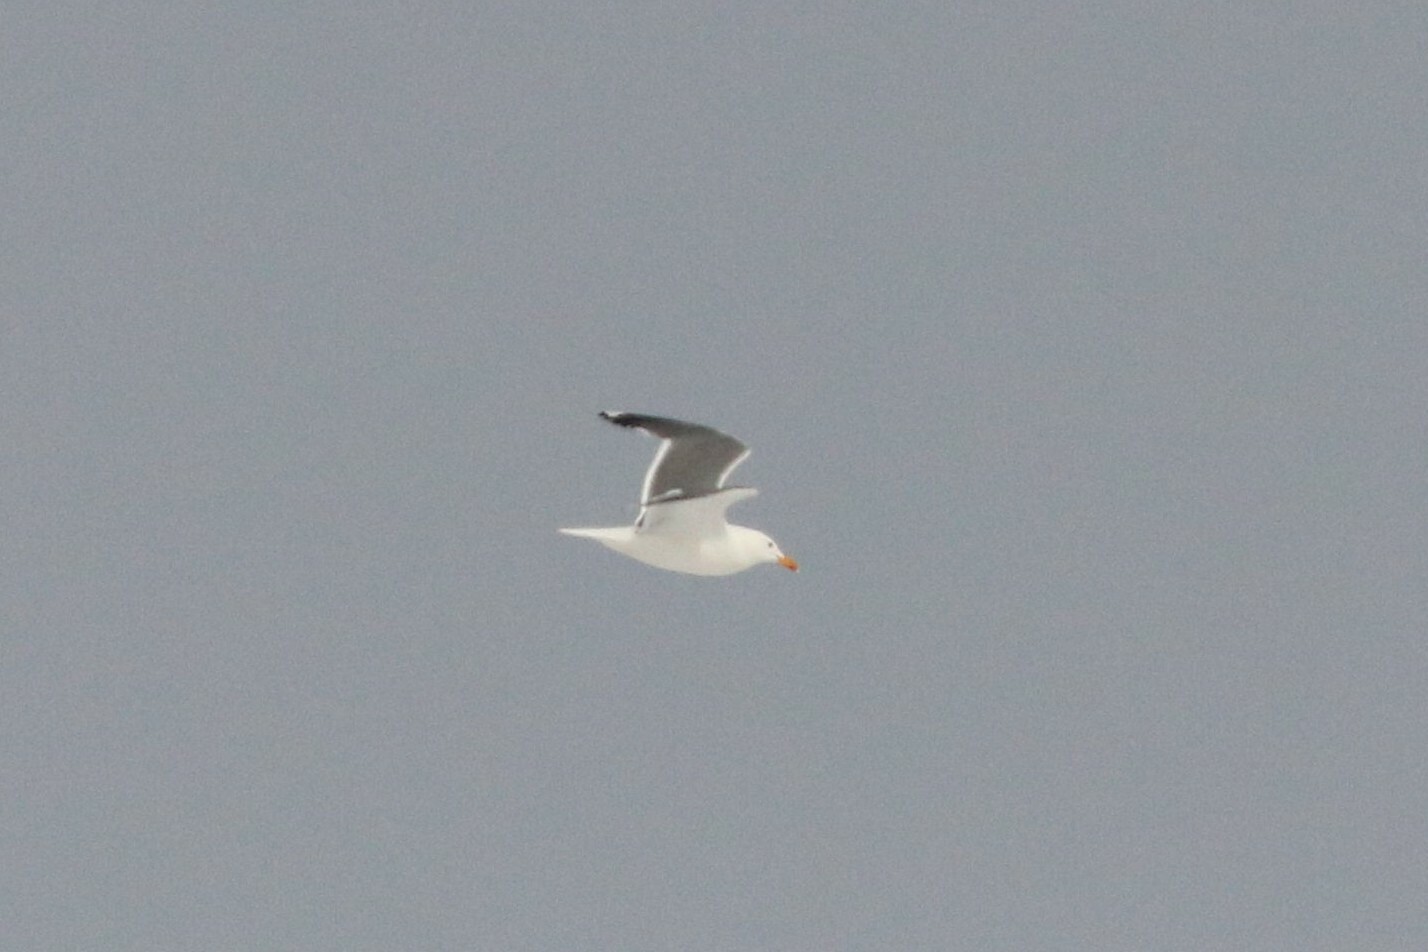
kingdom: Animalia
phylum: Chordata
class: Aves
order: Charadriiformes
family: Laridae
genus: Larus
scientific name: Larus fuscus
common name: Lesser black-backed gull
